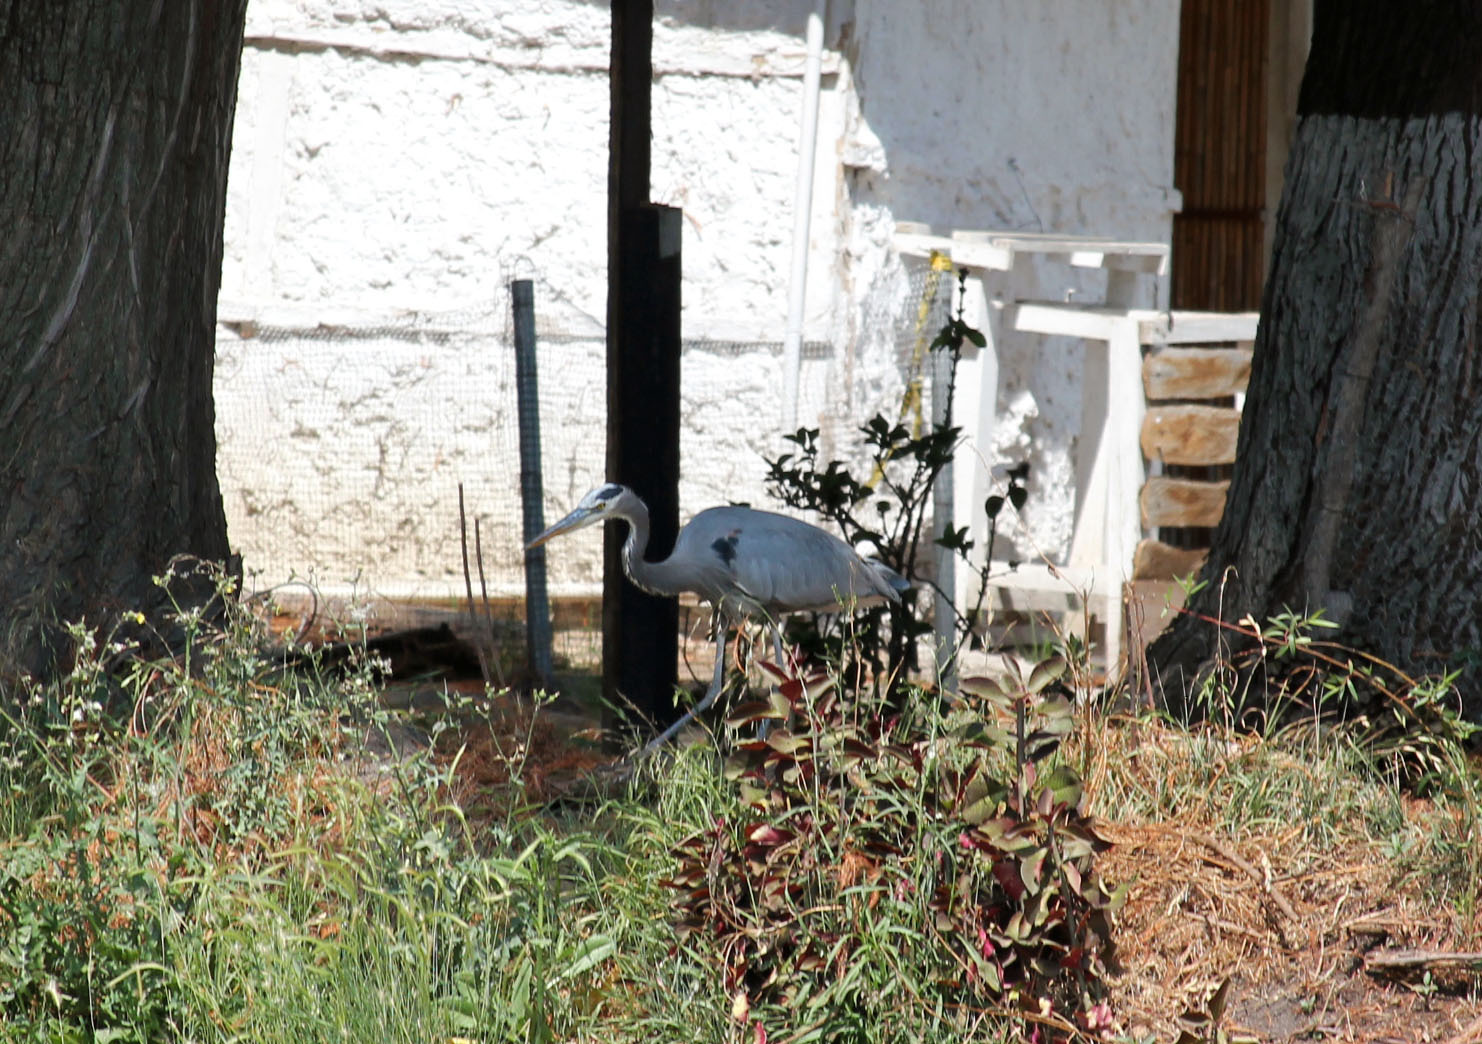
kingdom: Animalia
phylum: Chordata
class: Aves
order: Pelecaniformes
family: Ardeidae
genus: Ardea
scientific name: Ardea herodias
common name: Great blue heron
